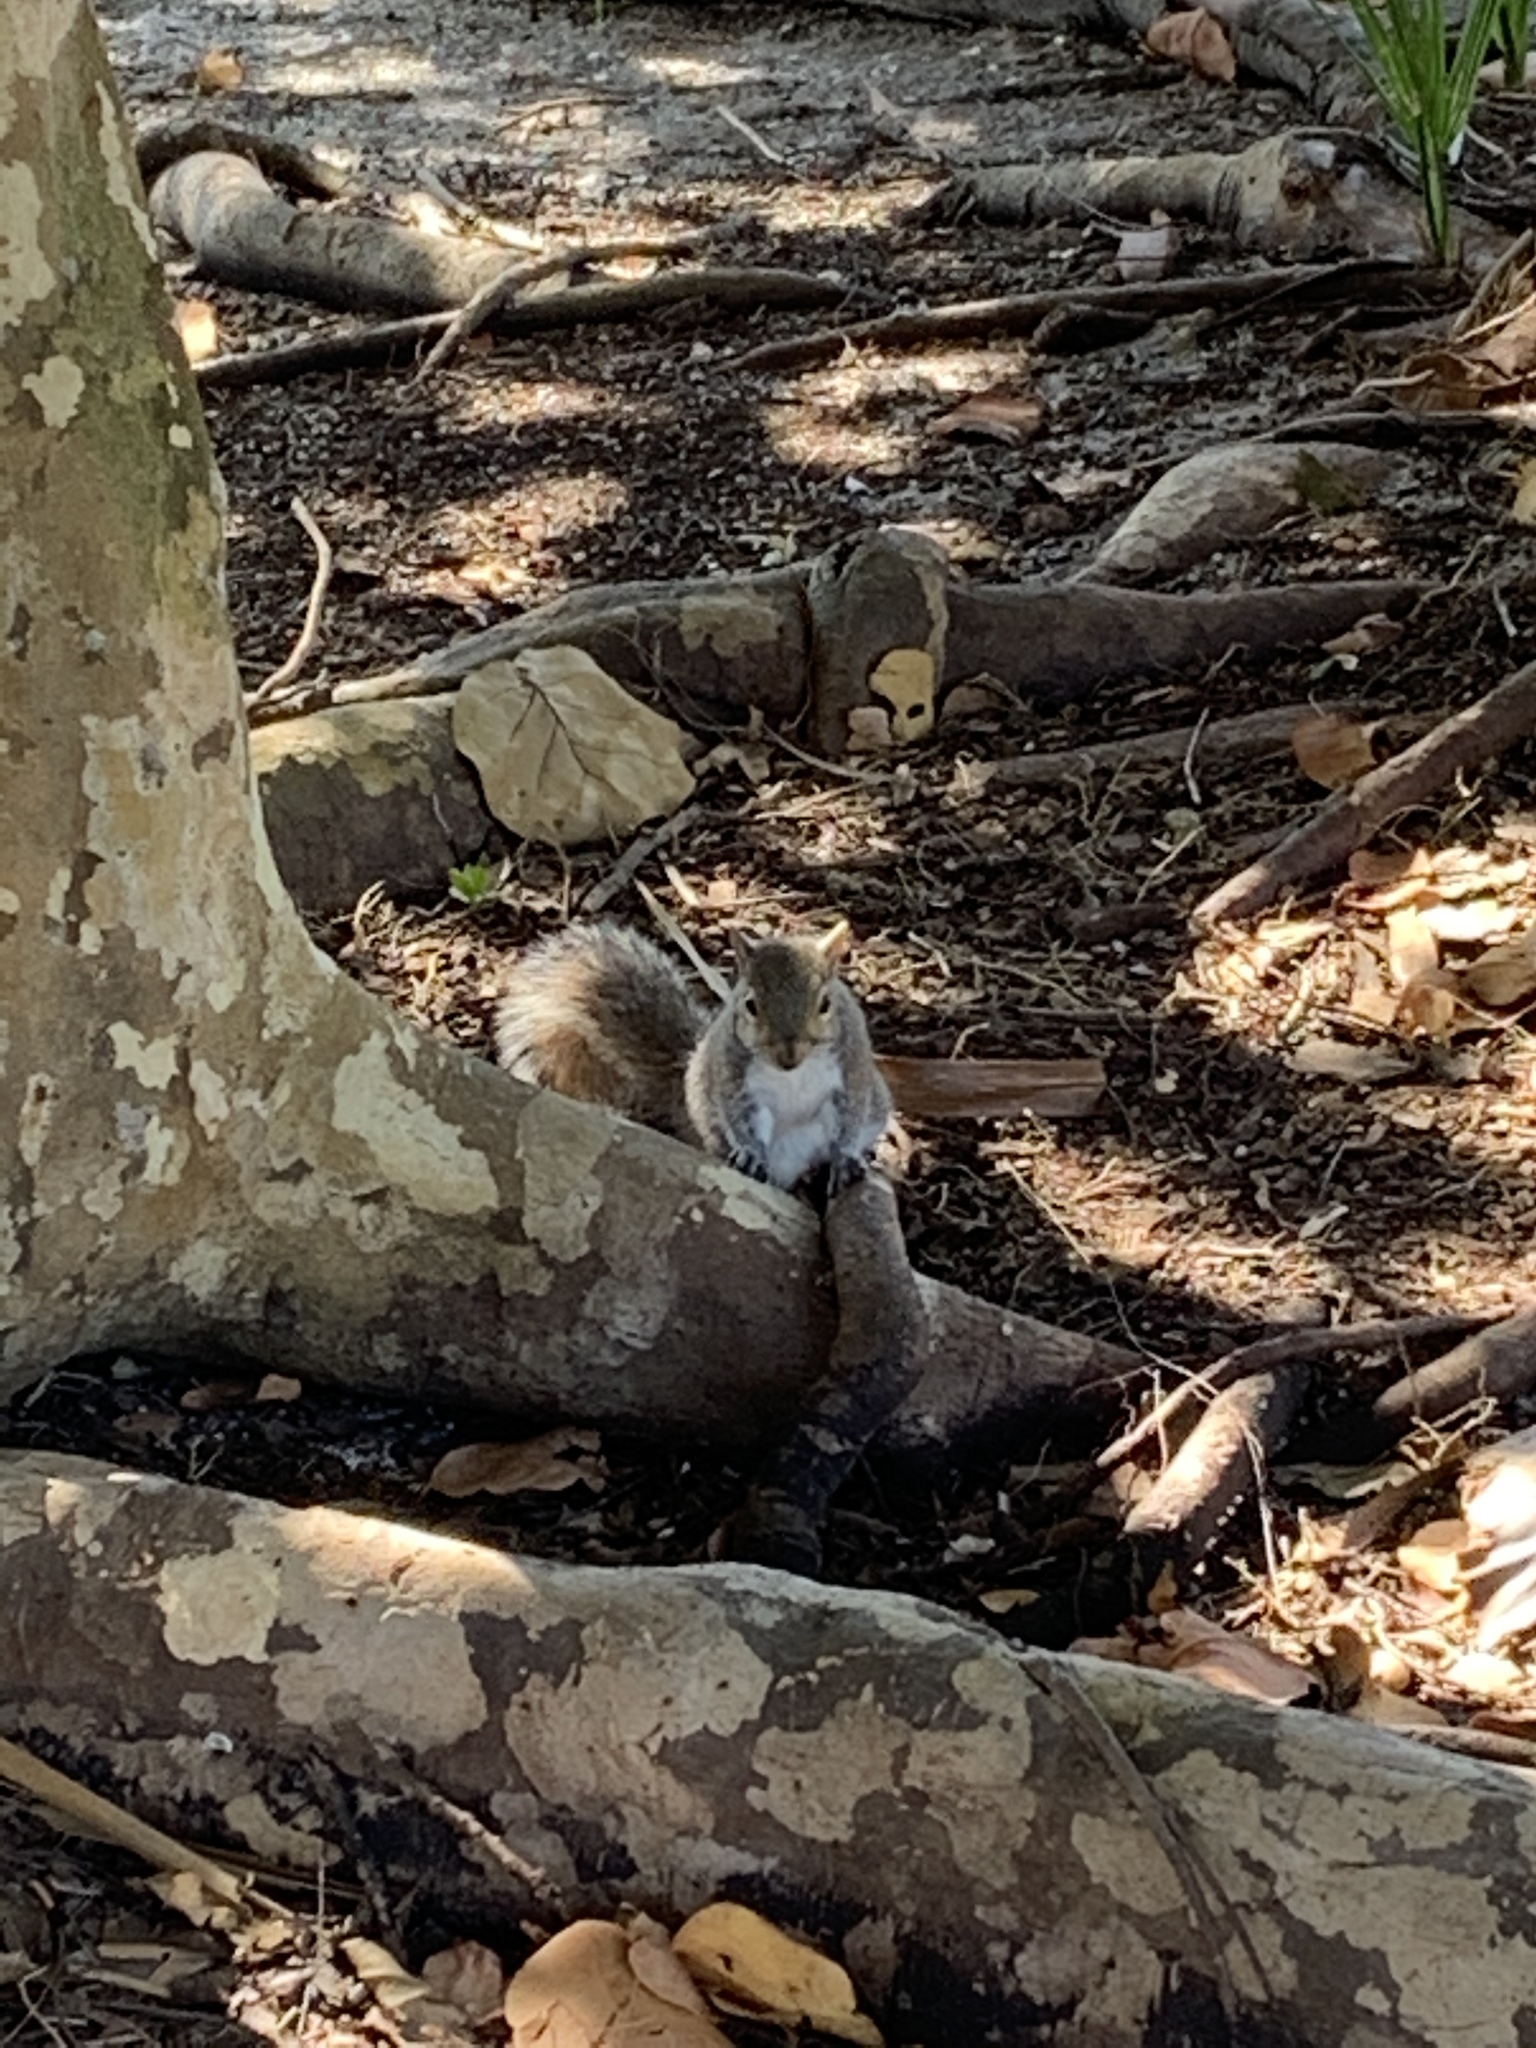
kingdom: Animalia
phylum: Chordata
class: Mammalia
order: Rodentia
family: Sciuridae
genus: Sciurus
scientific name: Sciurus carolinensis
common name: Eastern gray squirrel
